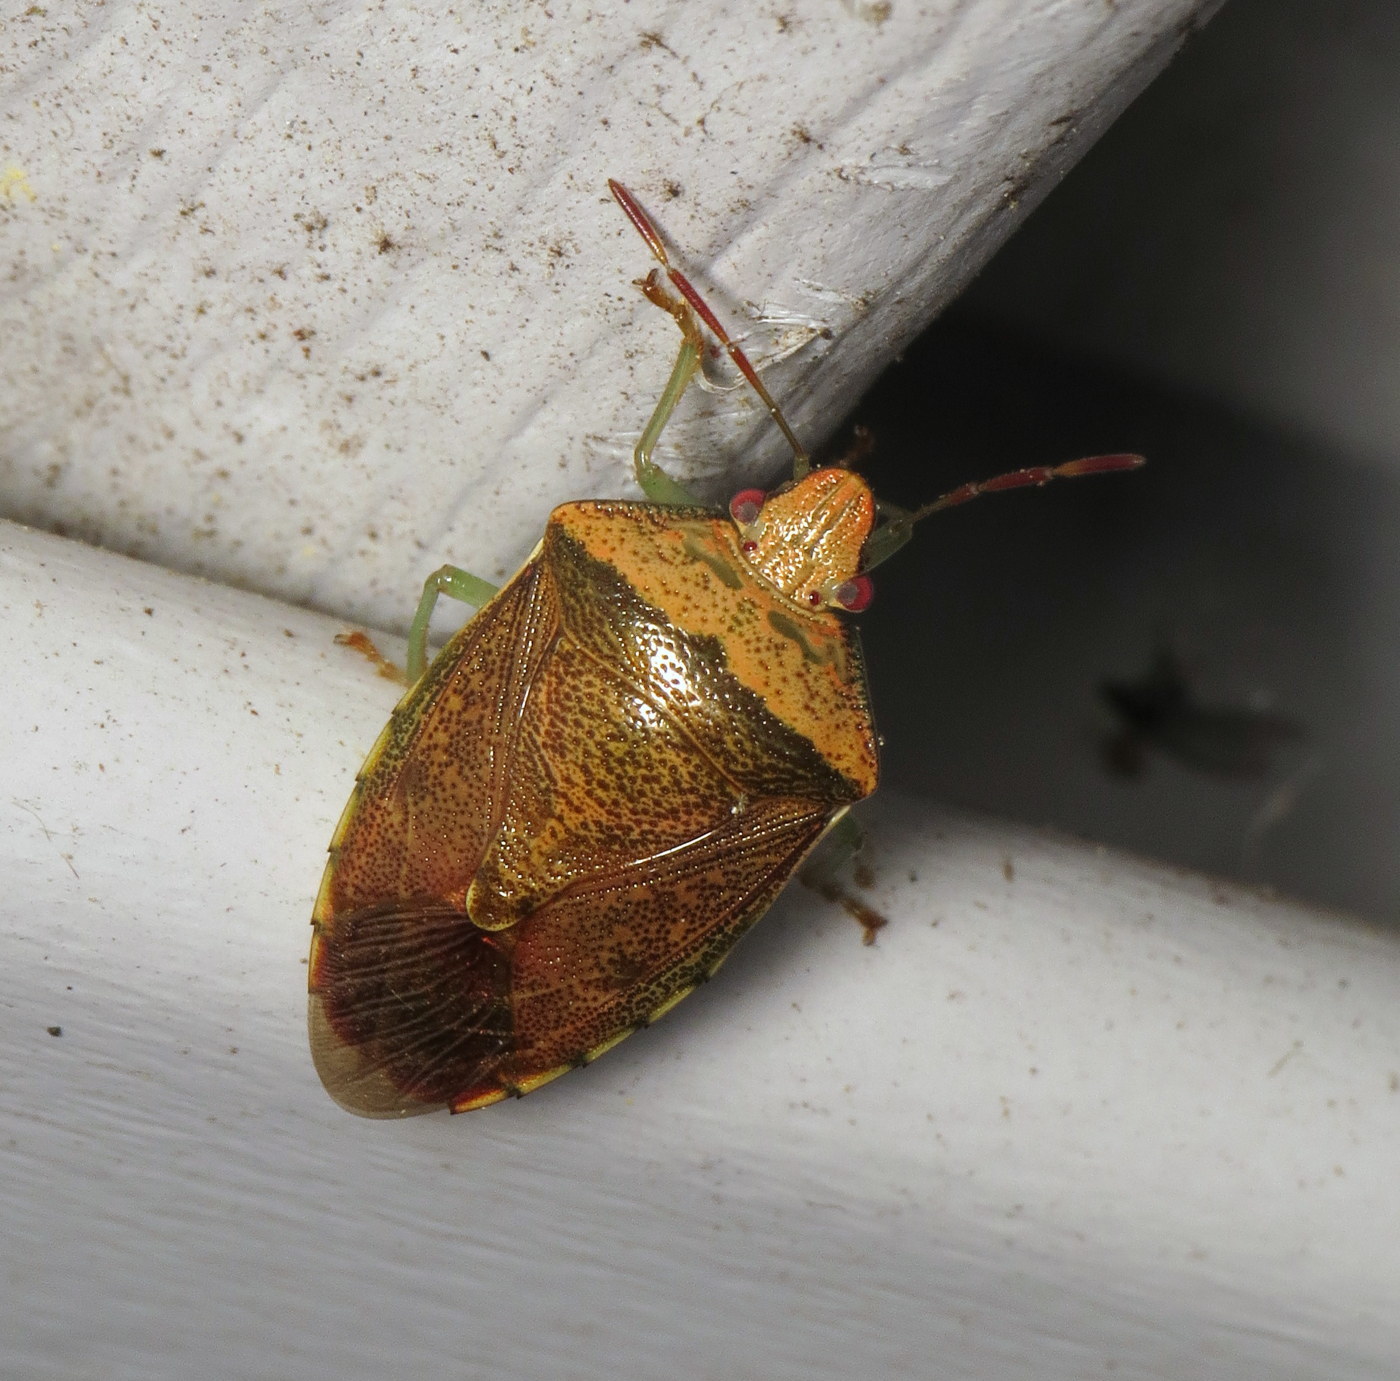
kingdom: Animalia
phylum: Arthropoda
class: Insecta
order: Hemiptera
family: Pentatomidae
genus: Banasa
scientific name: Banasa calva
